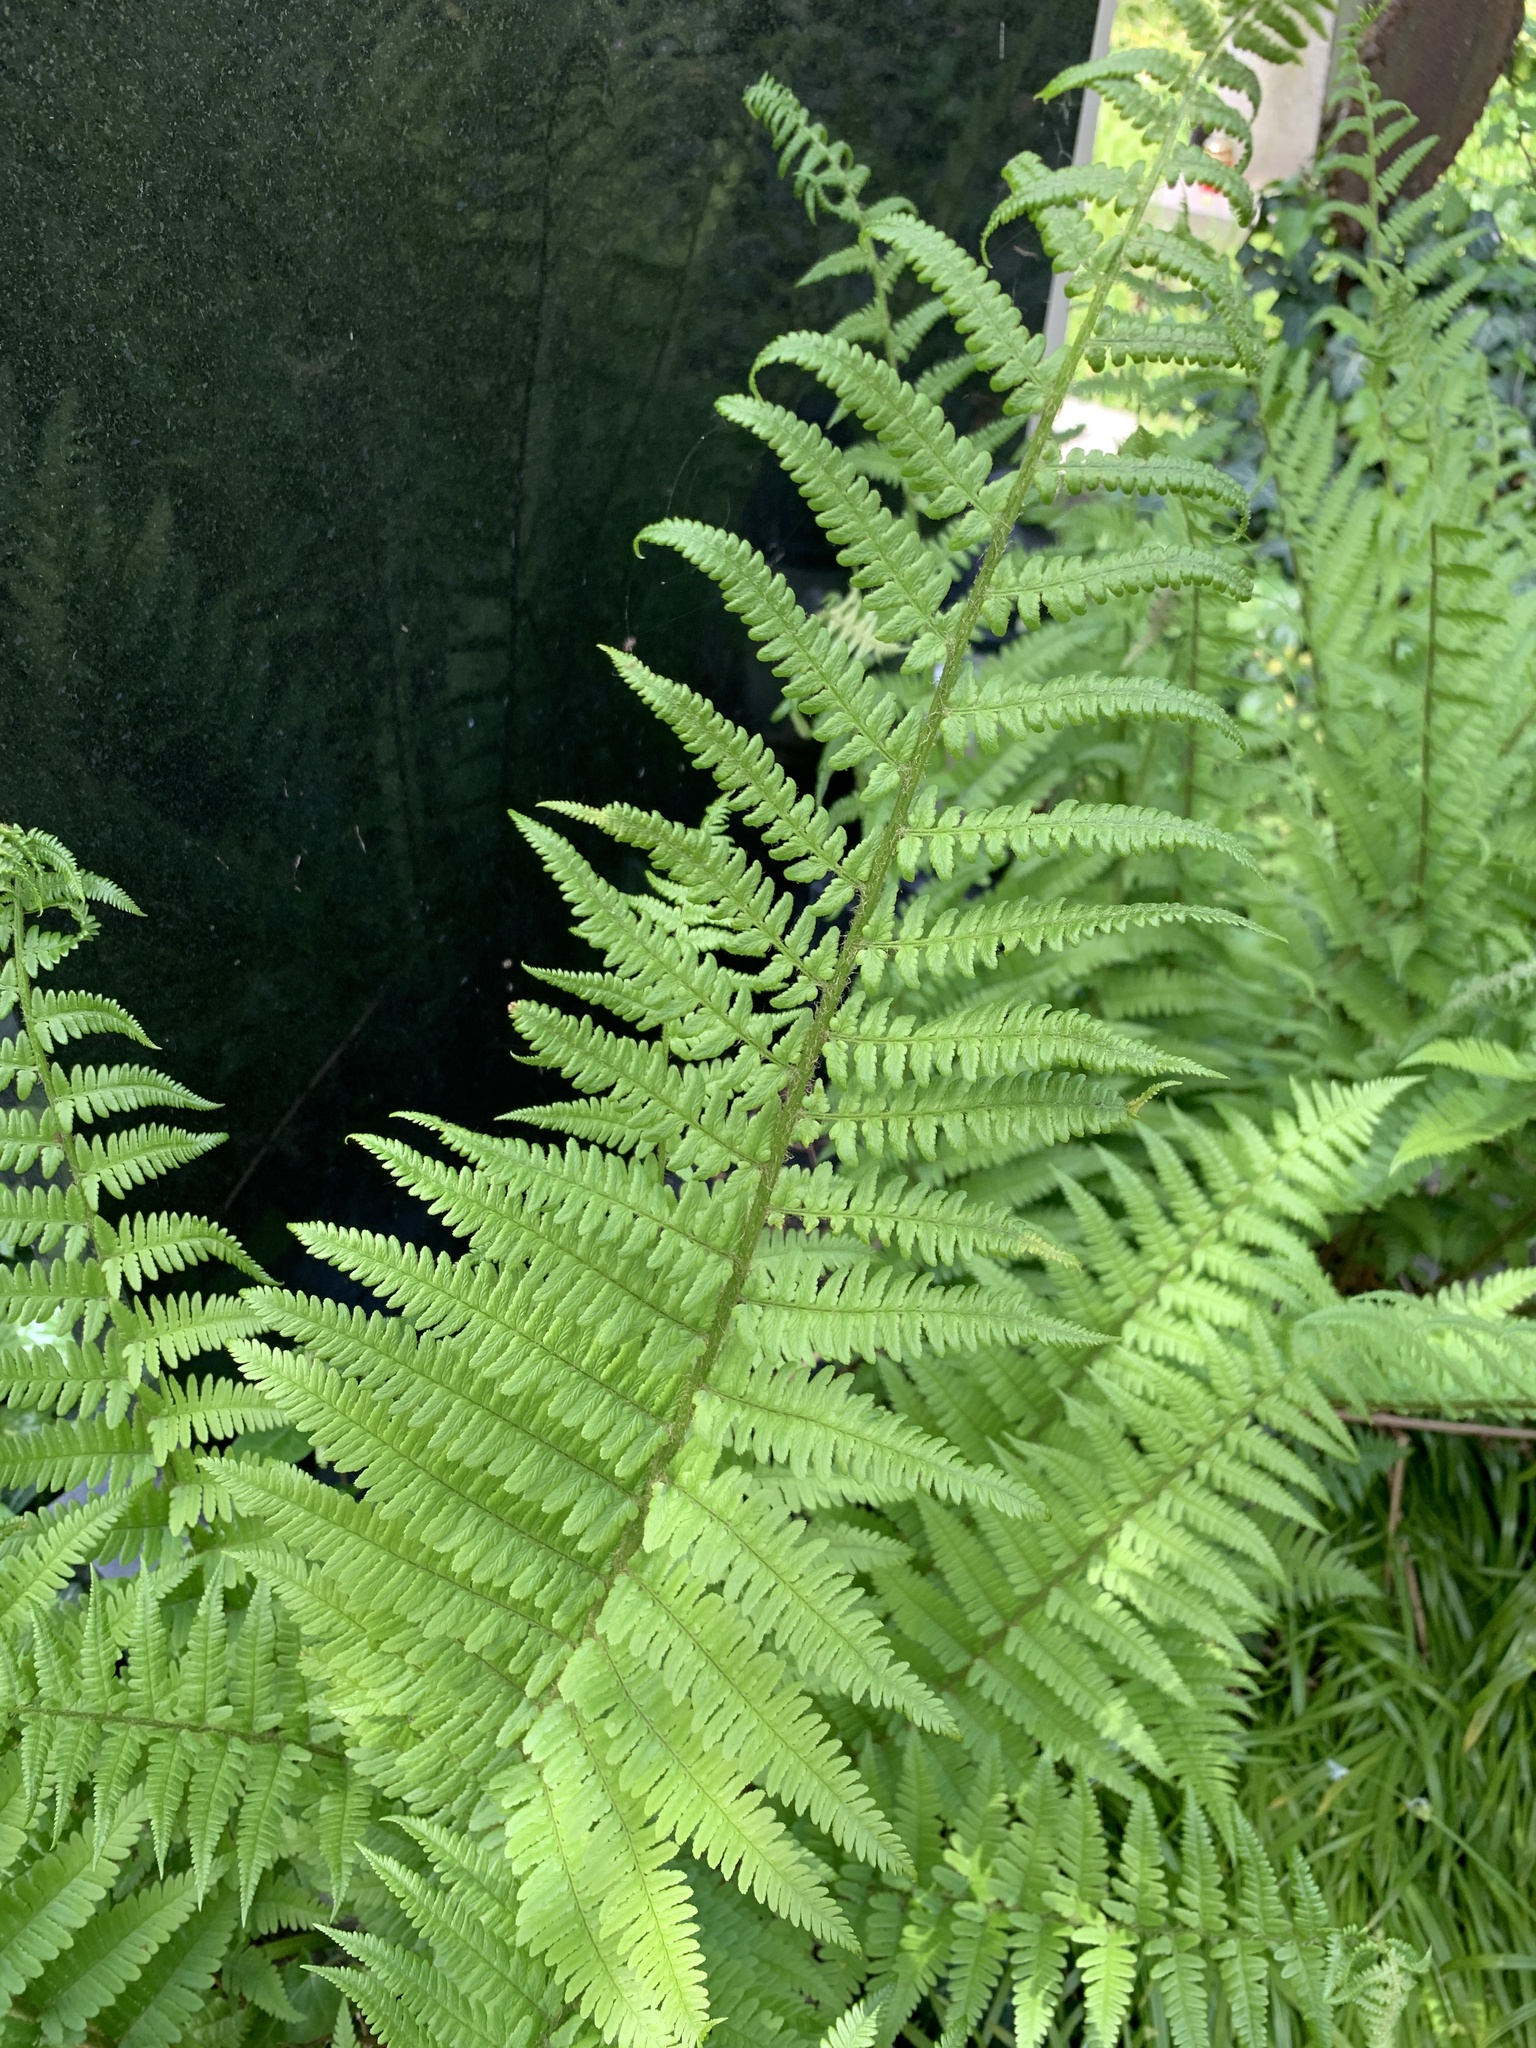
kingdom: Plantae
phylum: Tracheophyta
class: Polypodiopsida
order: Polypodiales
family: Dryopteridaceae
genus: Dryopteris
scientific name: Dryopteris filix-mas
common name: Male fern
